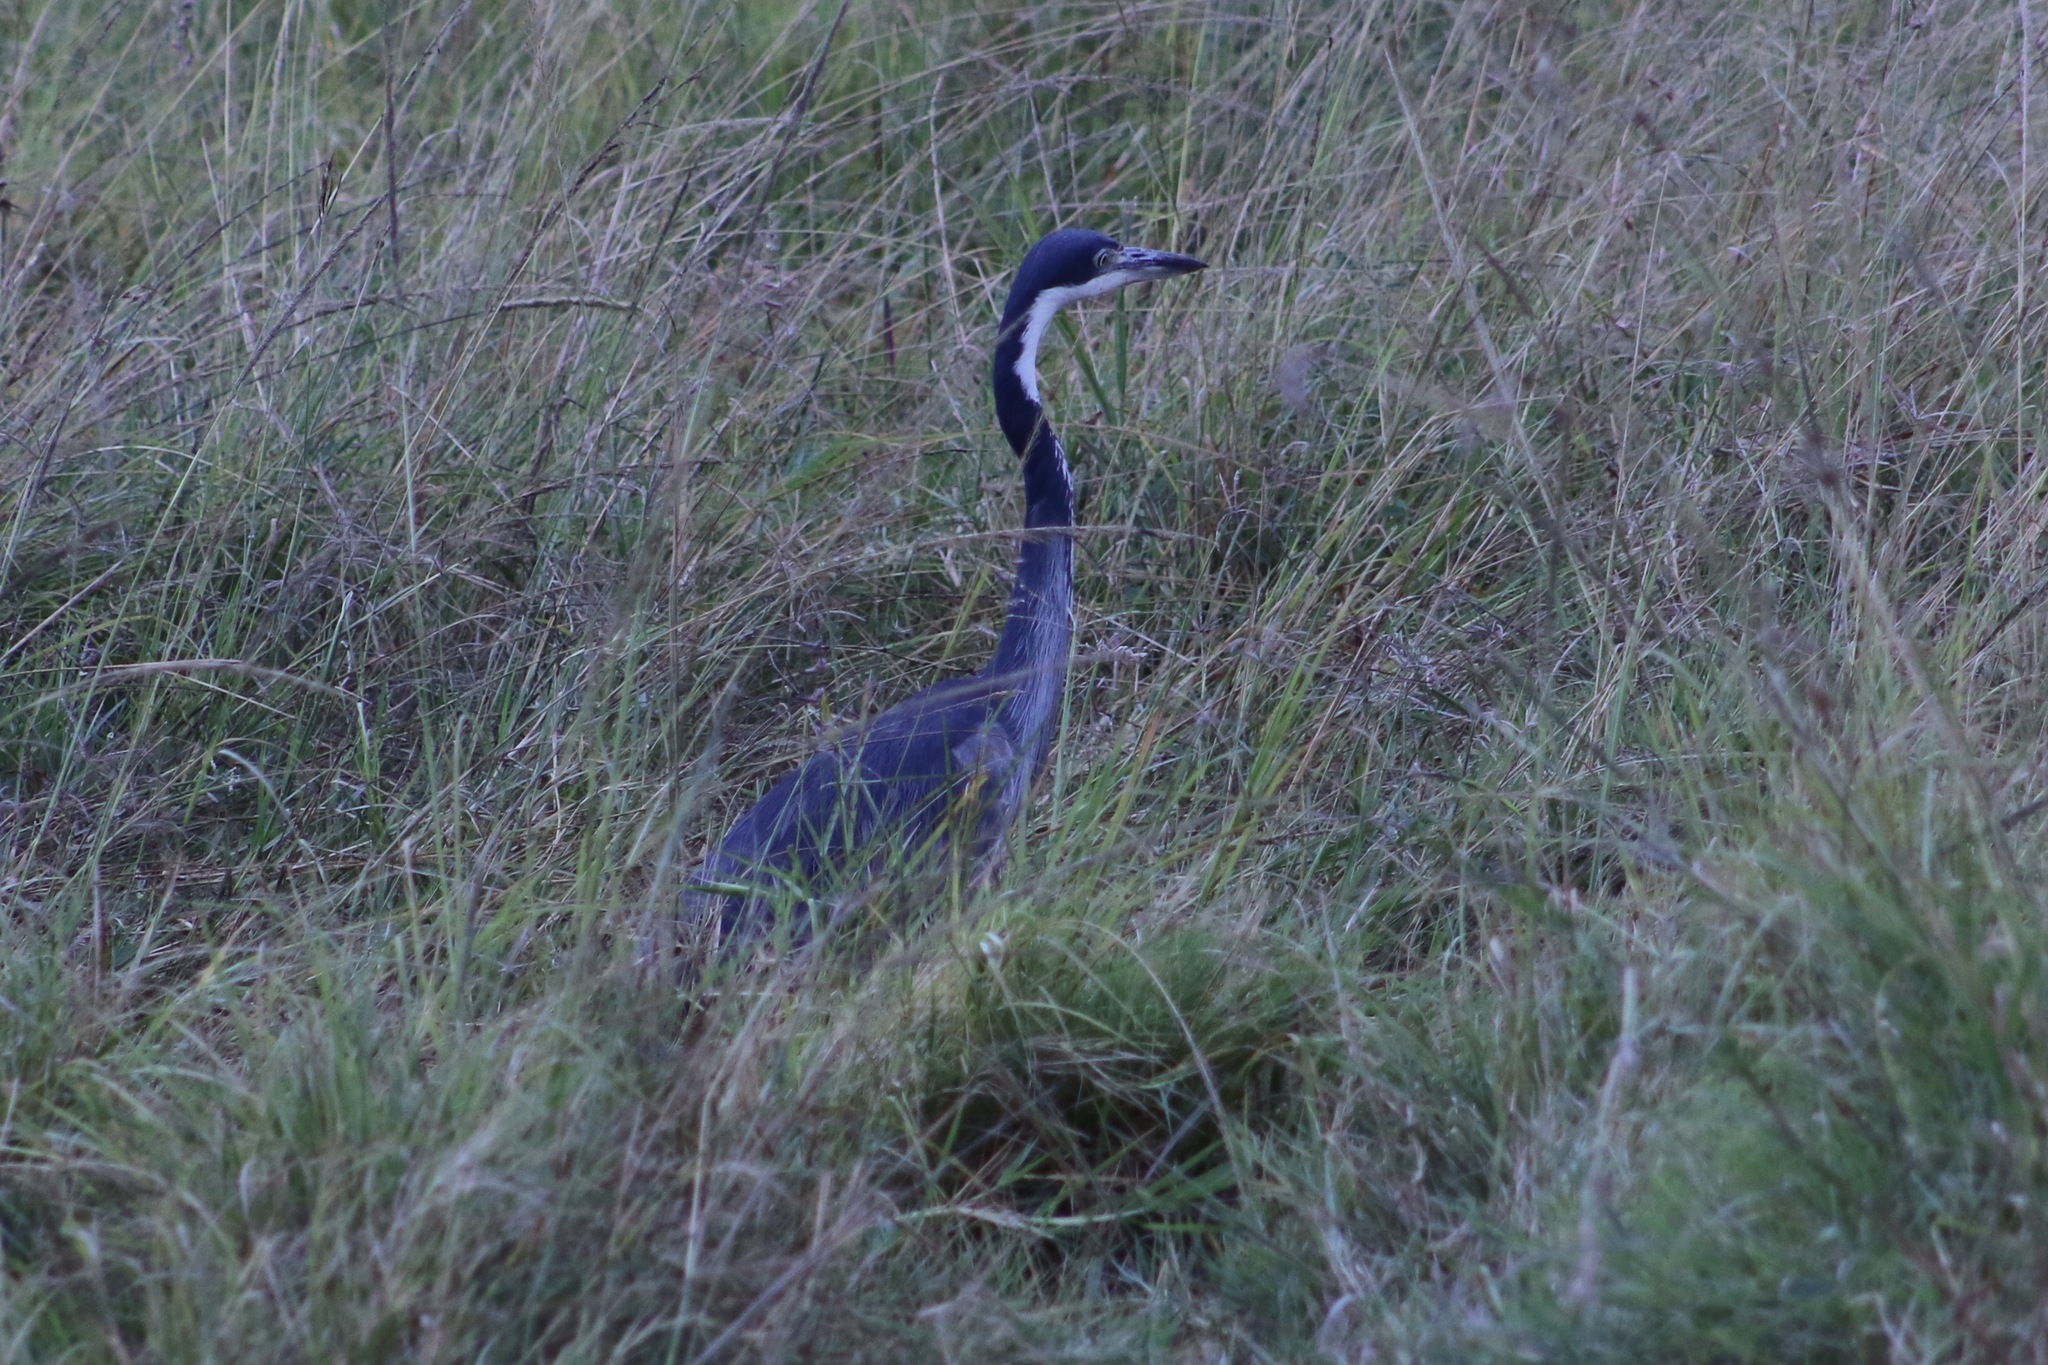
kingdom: Animalia
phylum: Chordata
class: Aves
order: Pelecaniformes
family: Ardeidae
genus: Ardea
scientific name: Ardea melanocephala
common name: Black-headed heron
